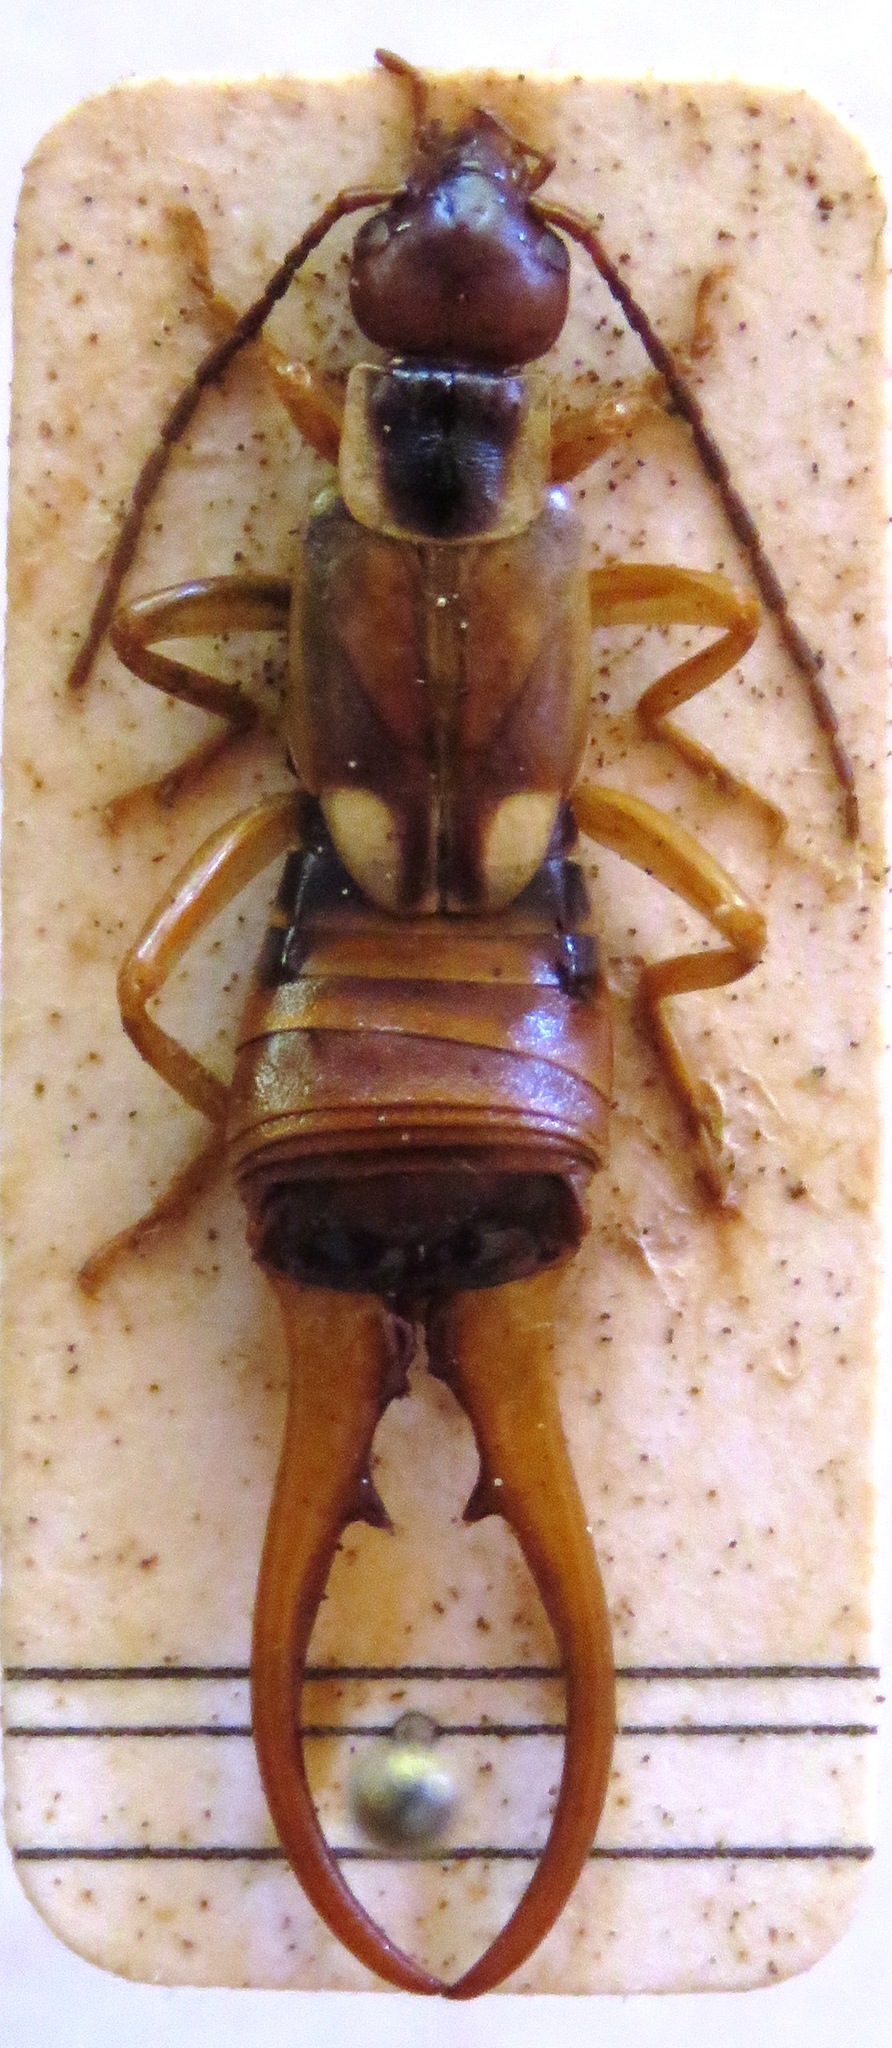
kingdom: Animalia
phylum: Arthropoda
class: Insecta
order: Dermaptera
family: Forficulidae
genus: Forficula
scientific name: Forficula
